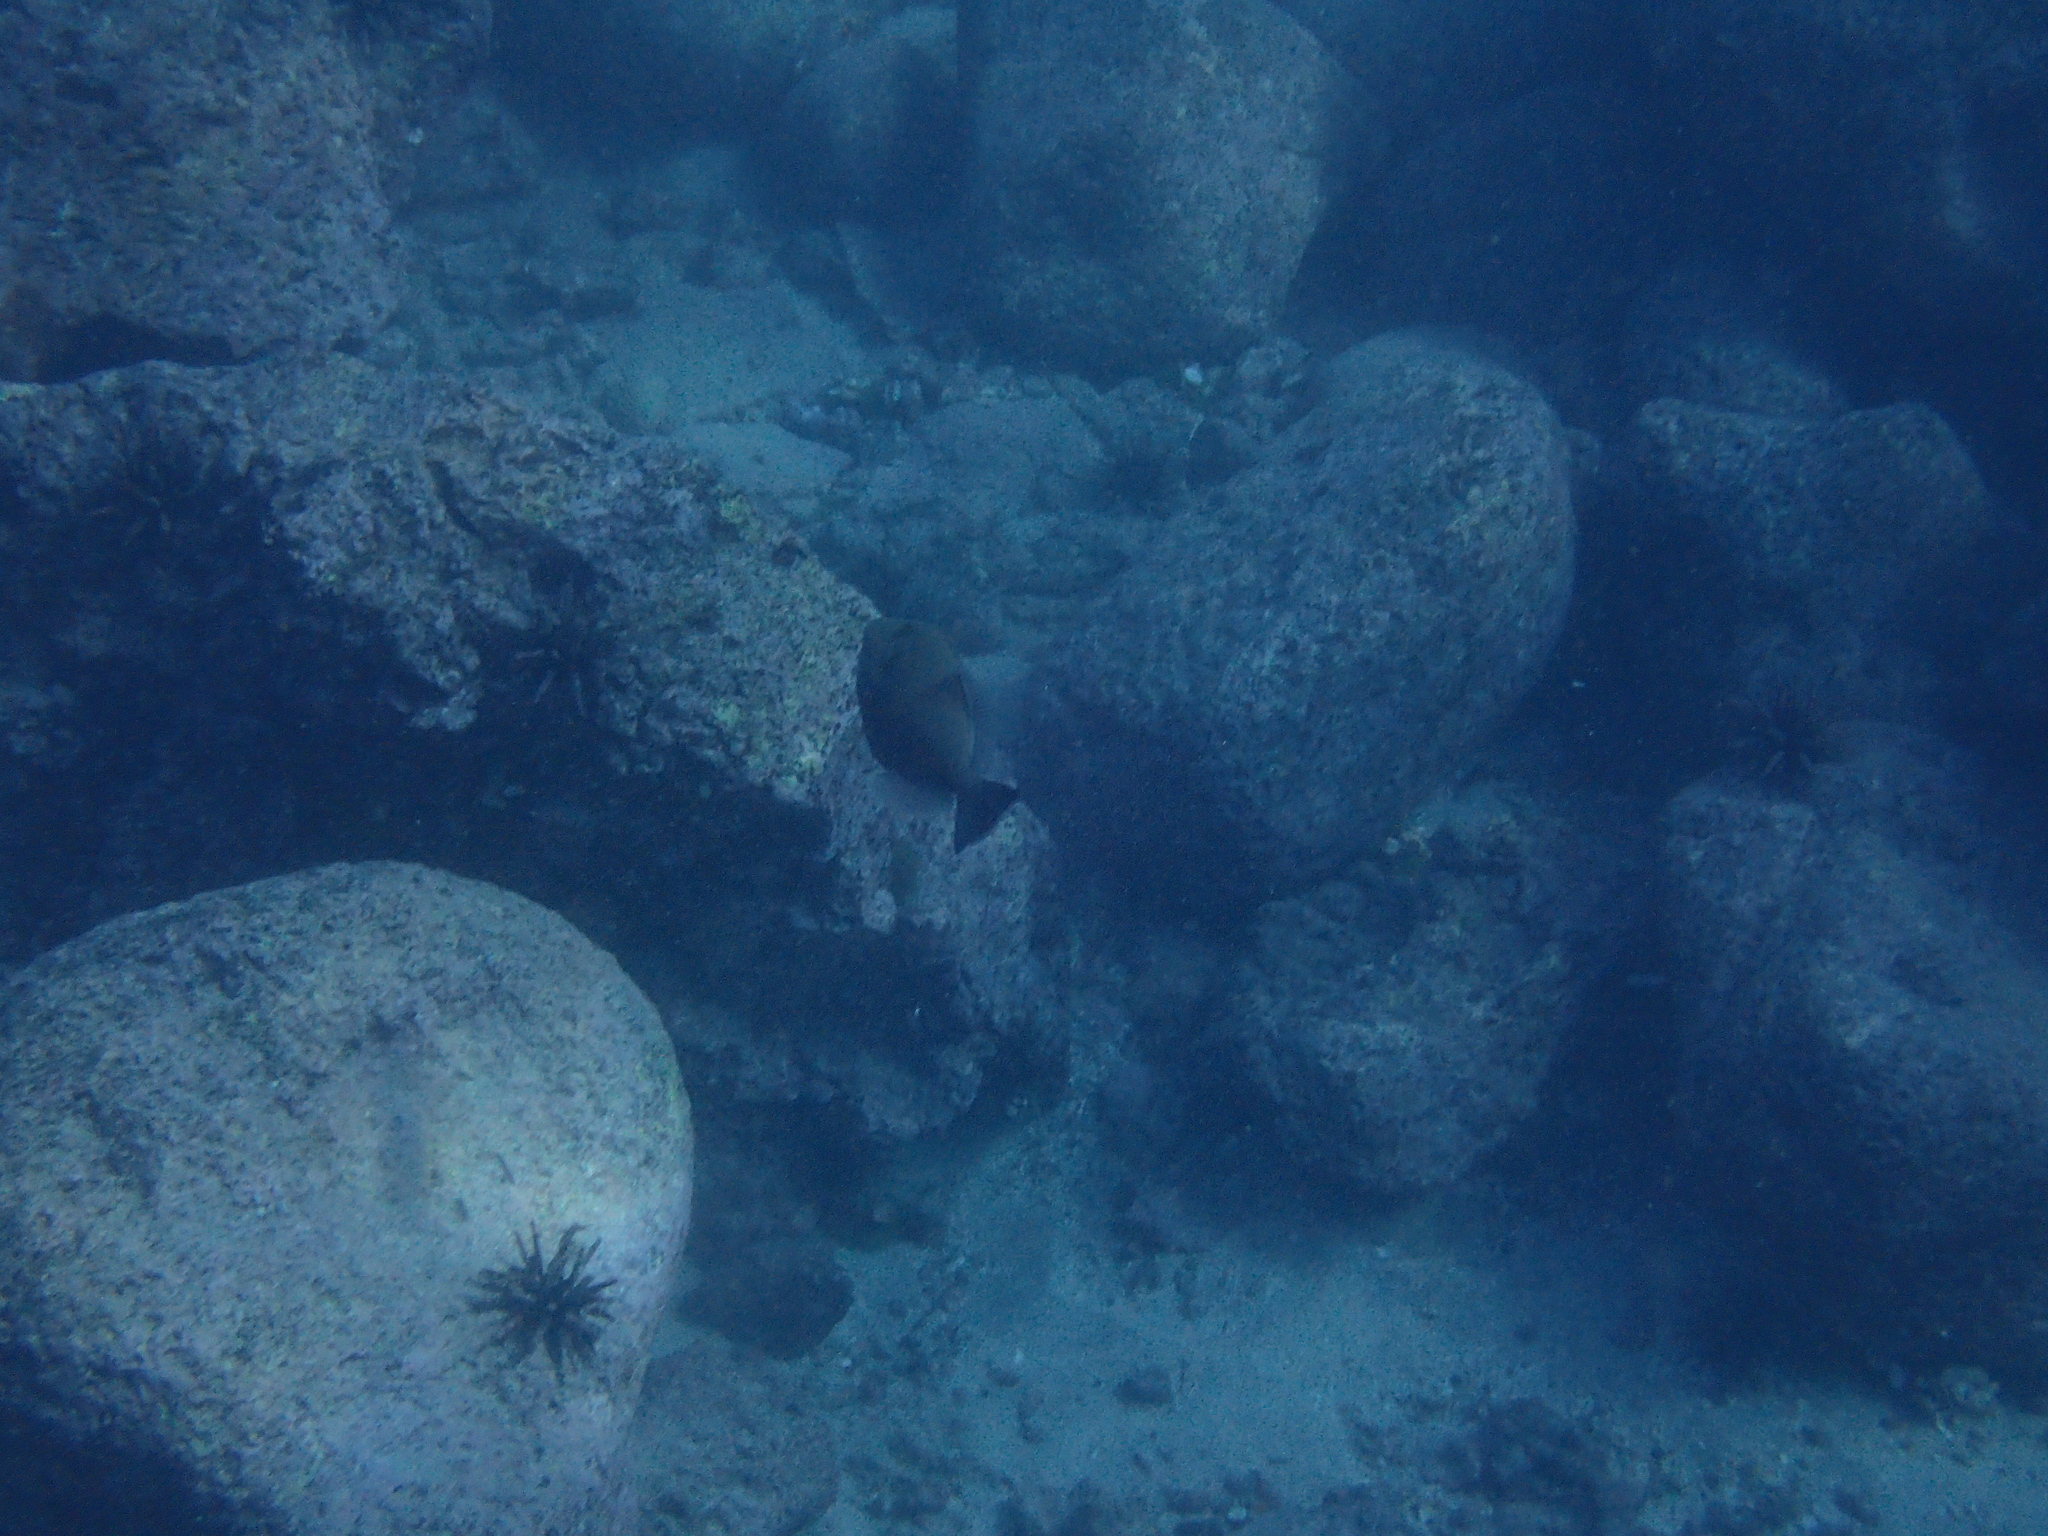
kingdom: Animalia
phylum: Chordata
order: Tetraodontiformes
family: Balistidae
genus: Balistes
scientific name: Balistes polylepis
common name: Finescale triggerfish
